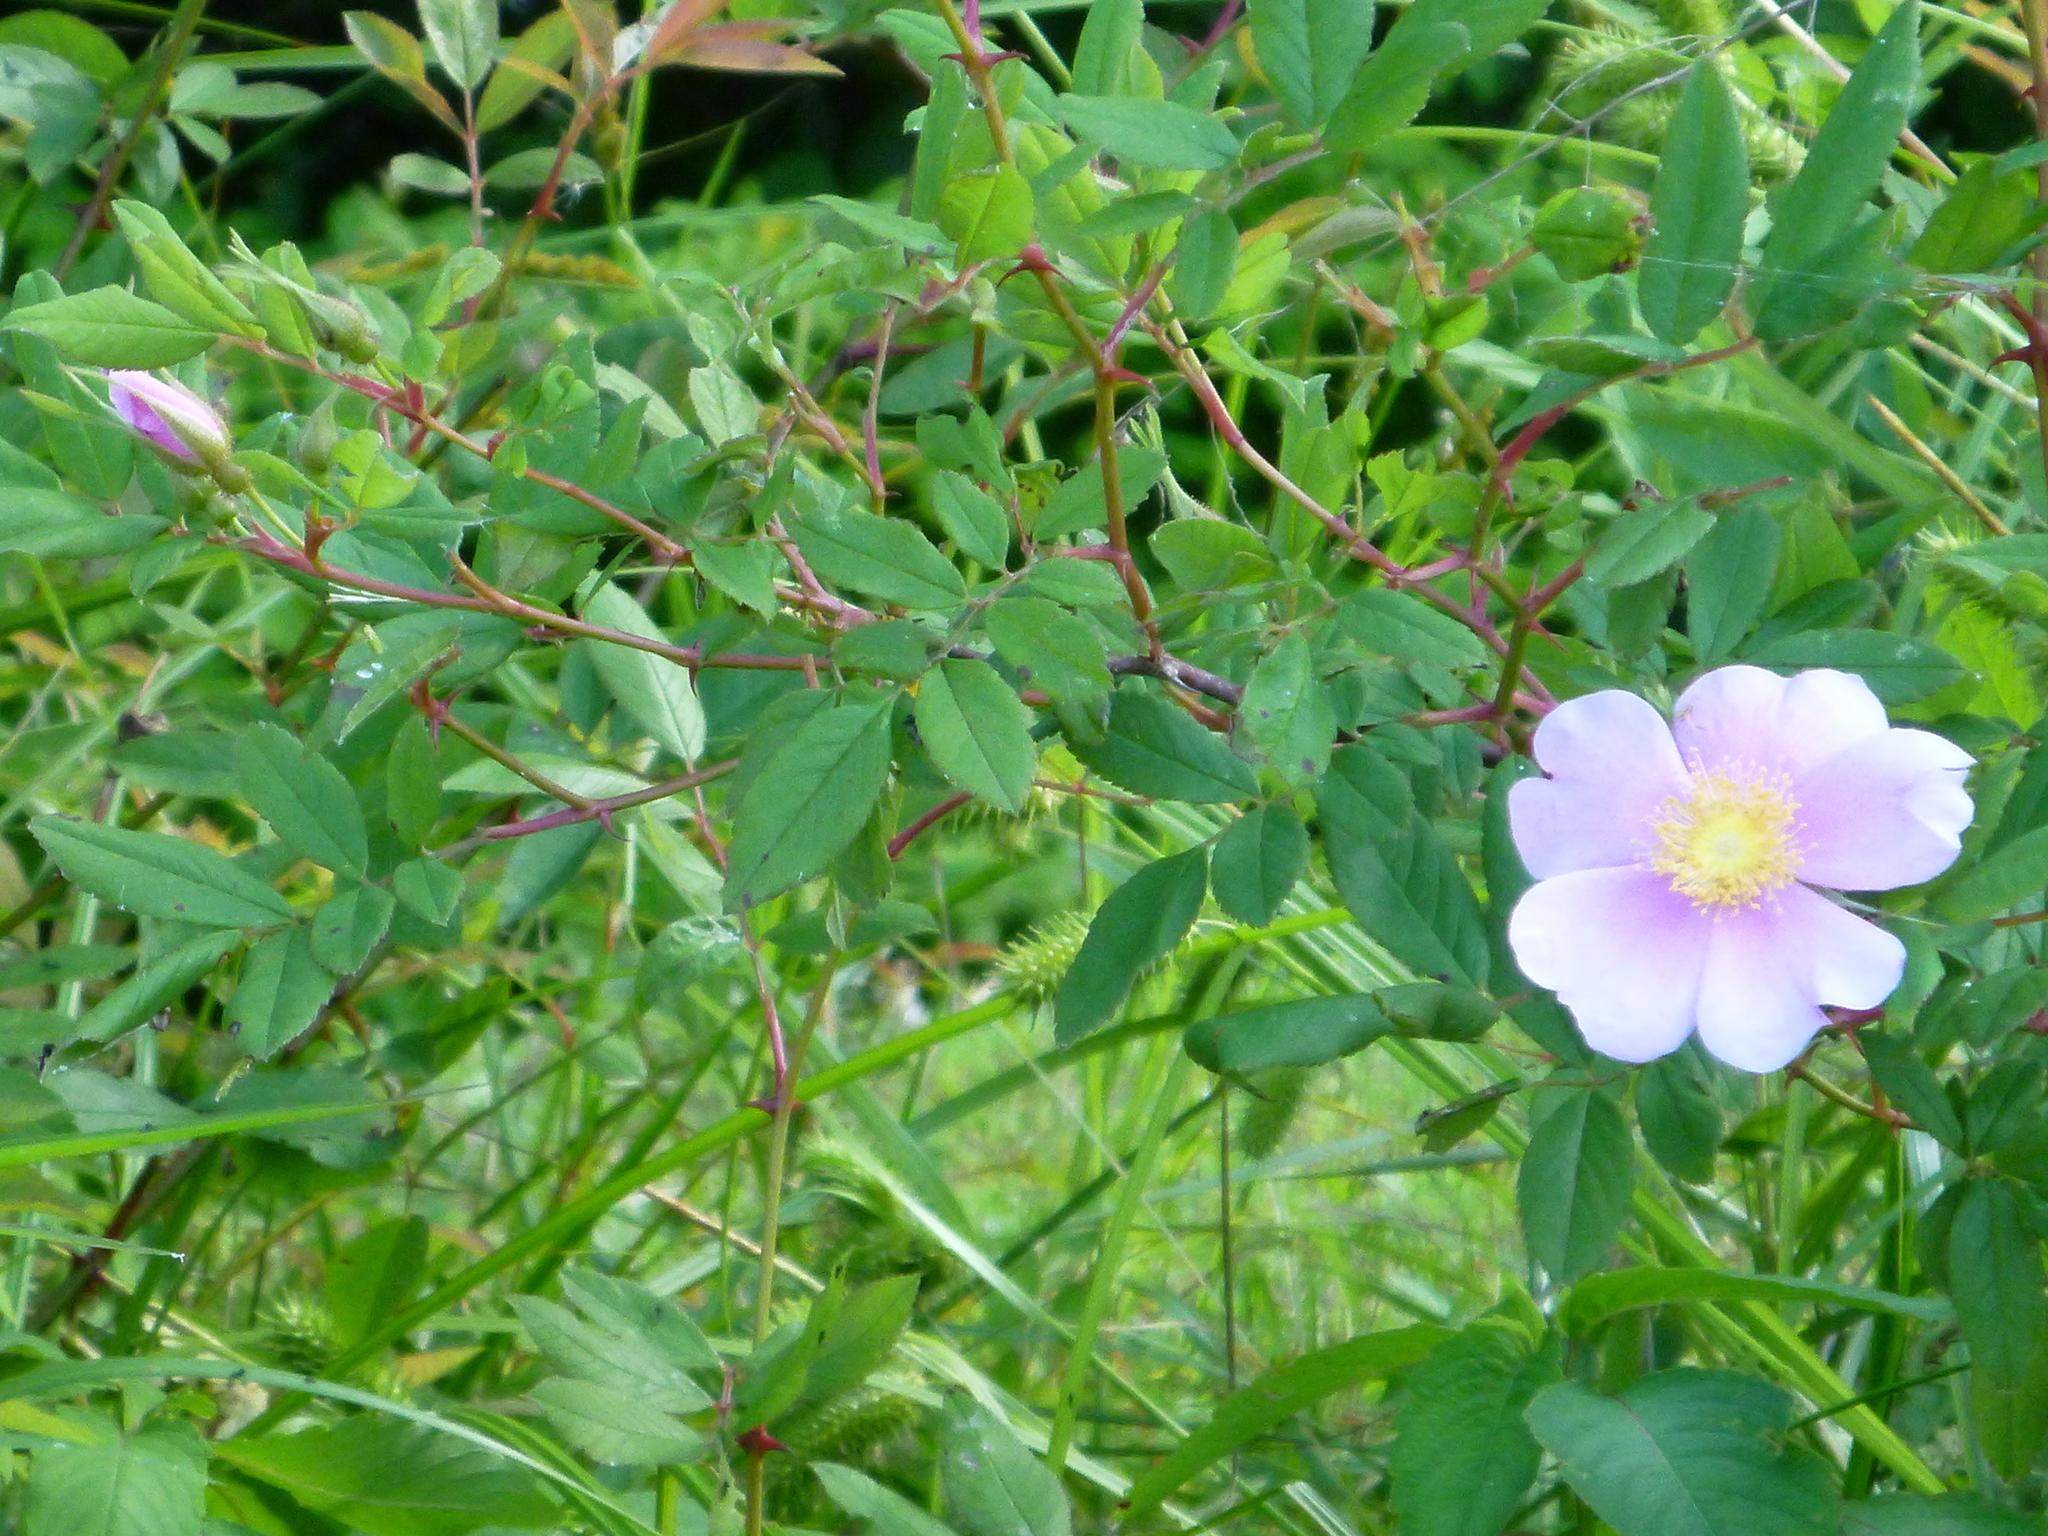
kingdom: Plantae
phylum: Tracheophyta
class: Magnoliopsida
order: Rosales
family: Rosaceae
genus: Rosa
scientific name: Rosa palustris
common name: Swamp rose
